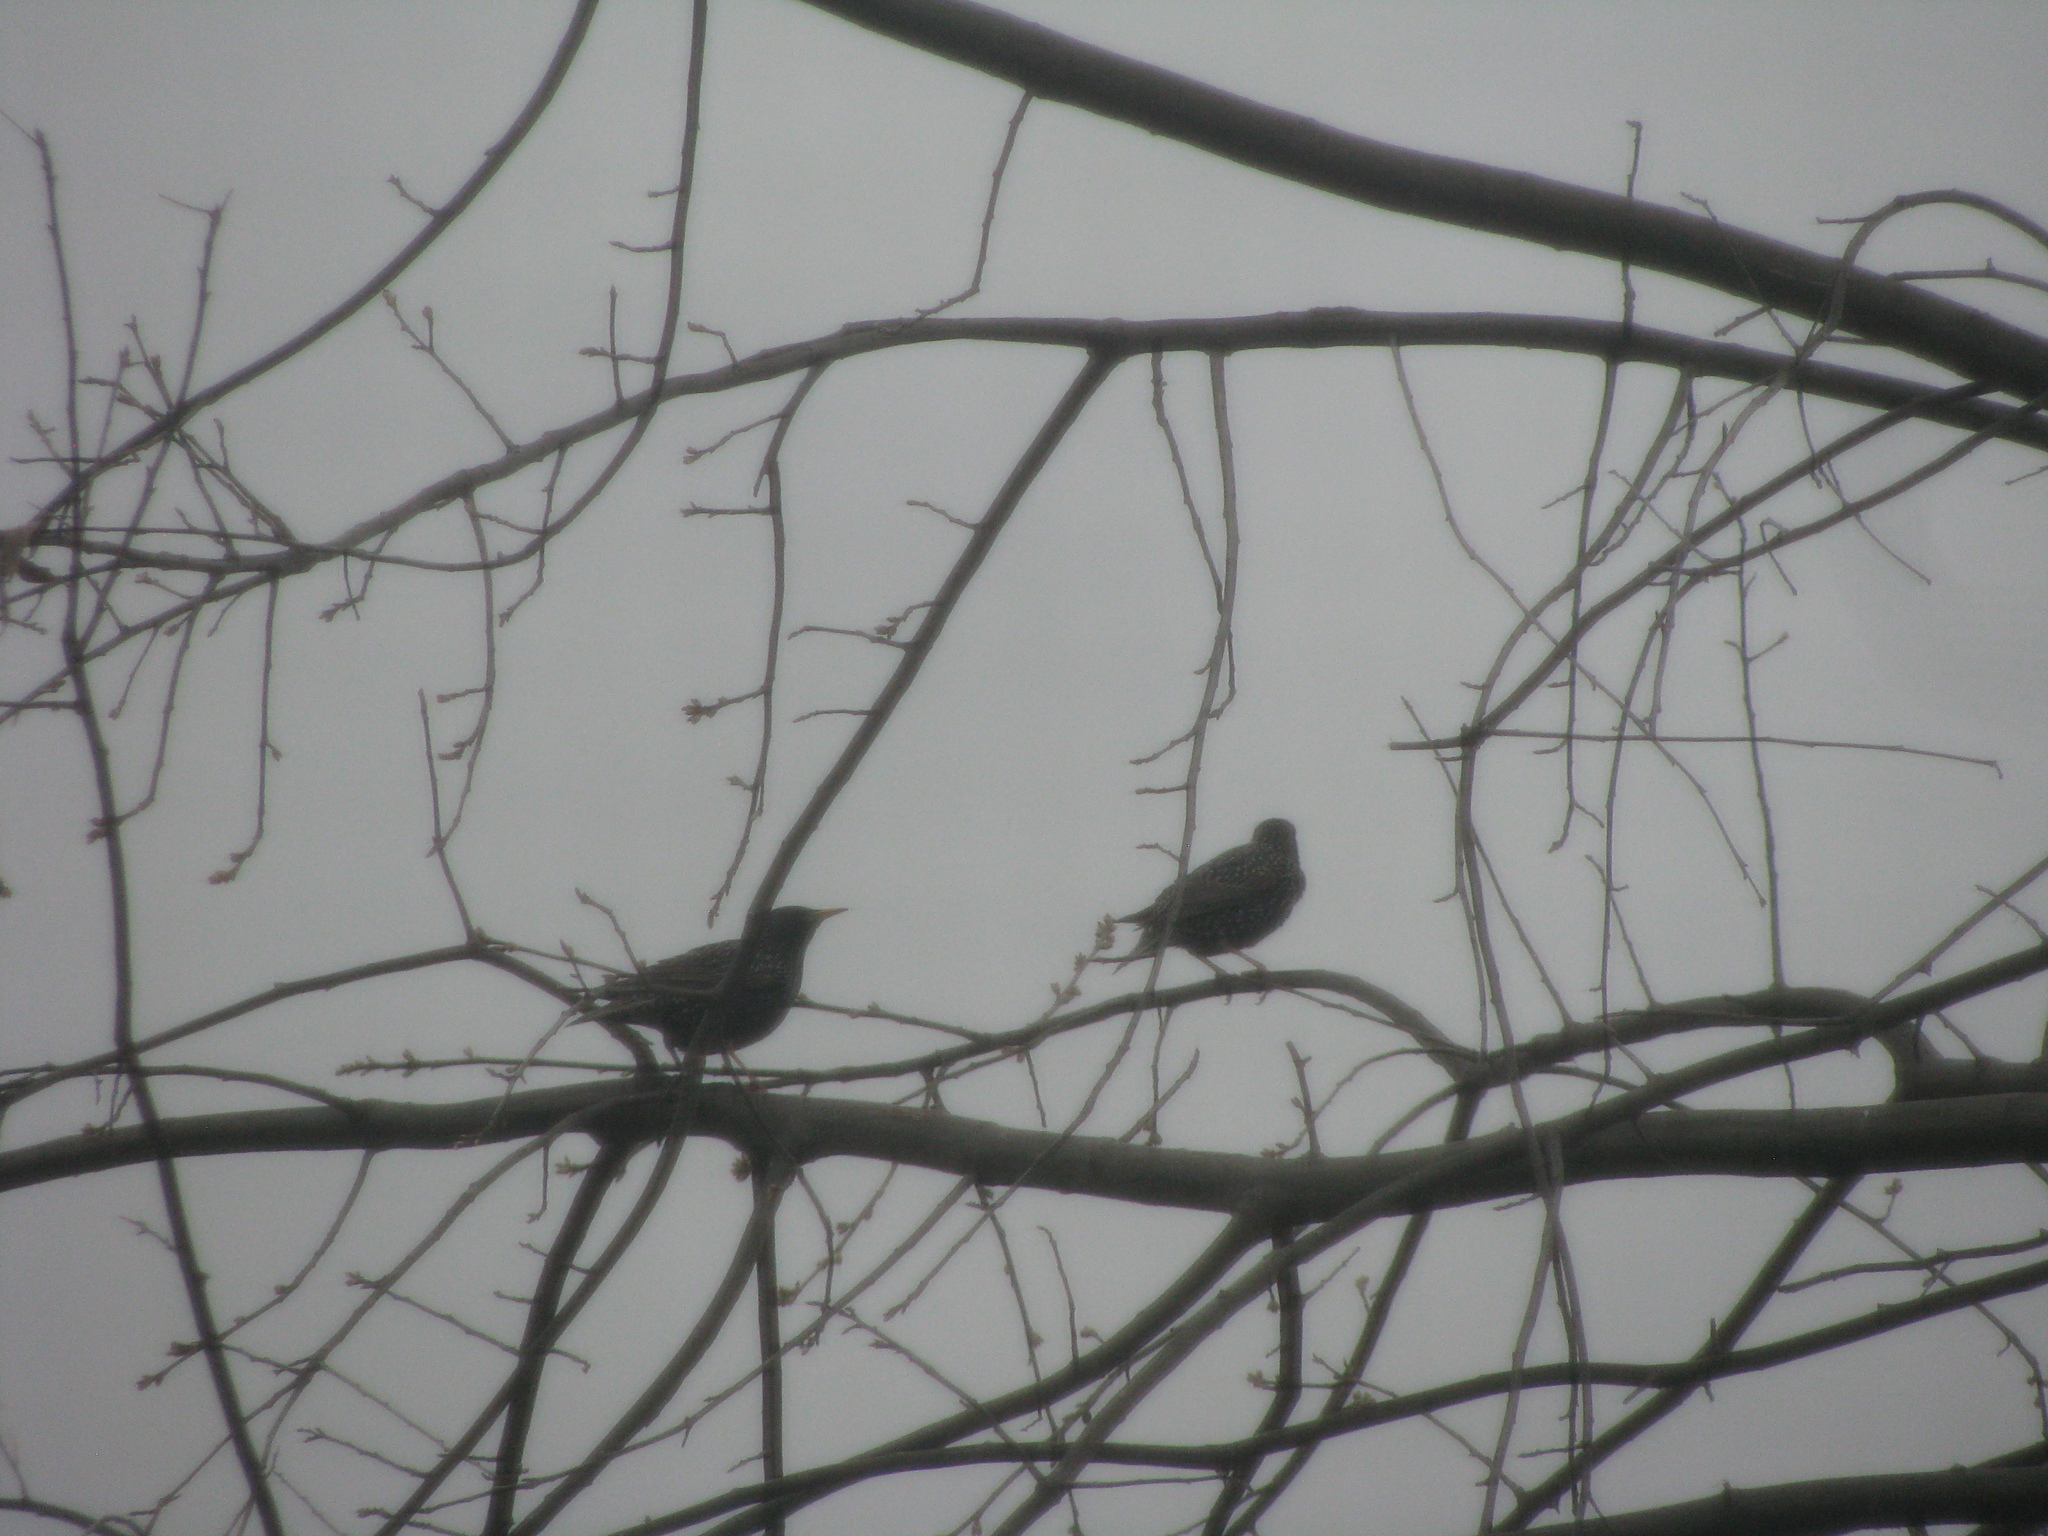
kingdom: Animalia
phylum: Chordata
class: Aves
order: Passeriformes
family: Sturnidae
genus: Sturnus
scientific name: Sturnus vulgaris
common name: Common starling
